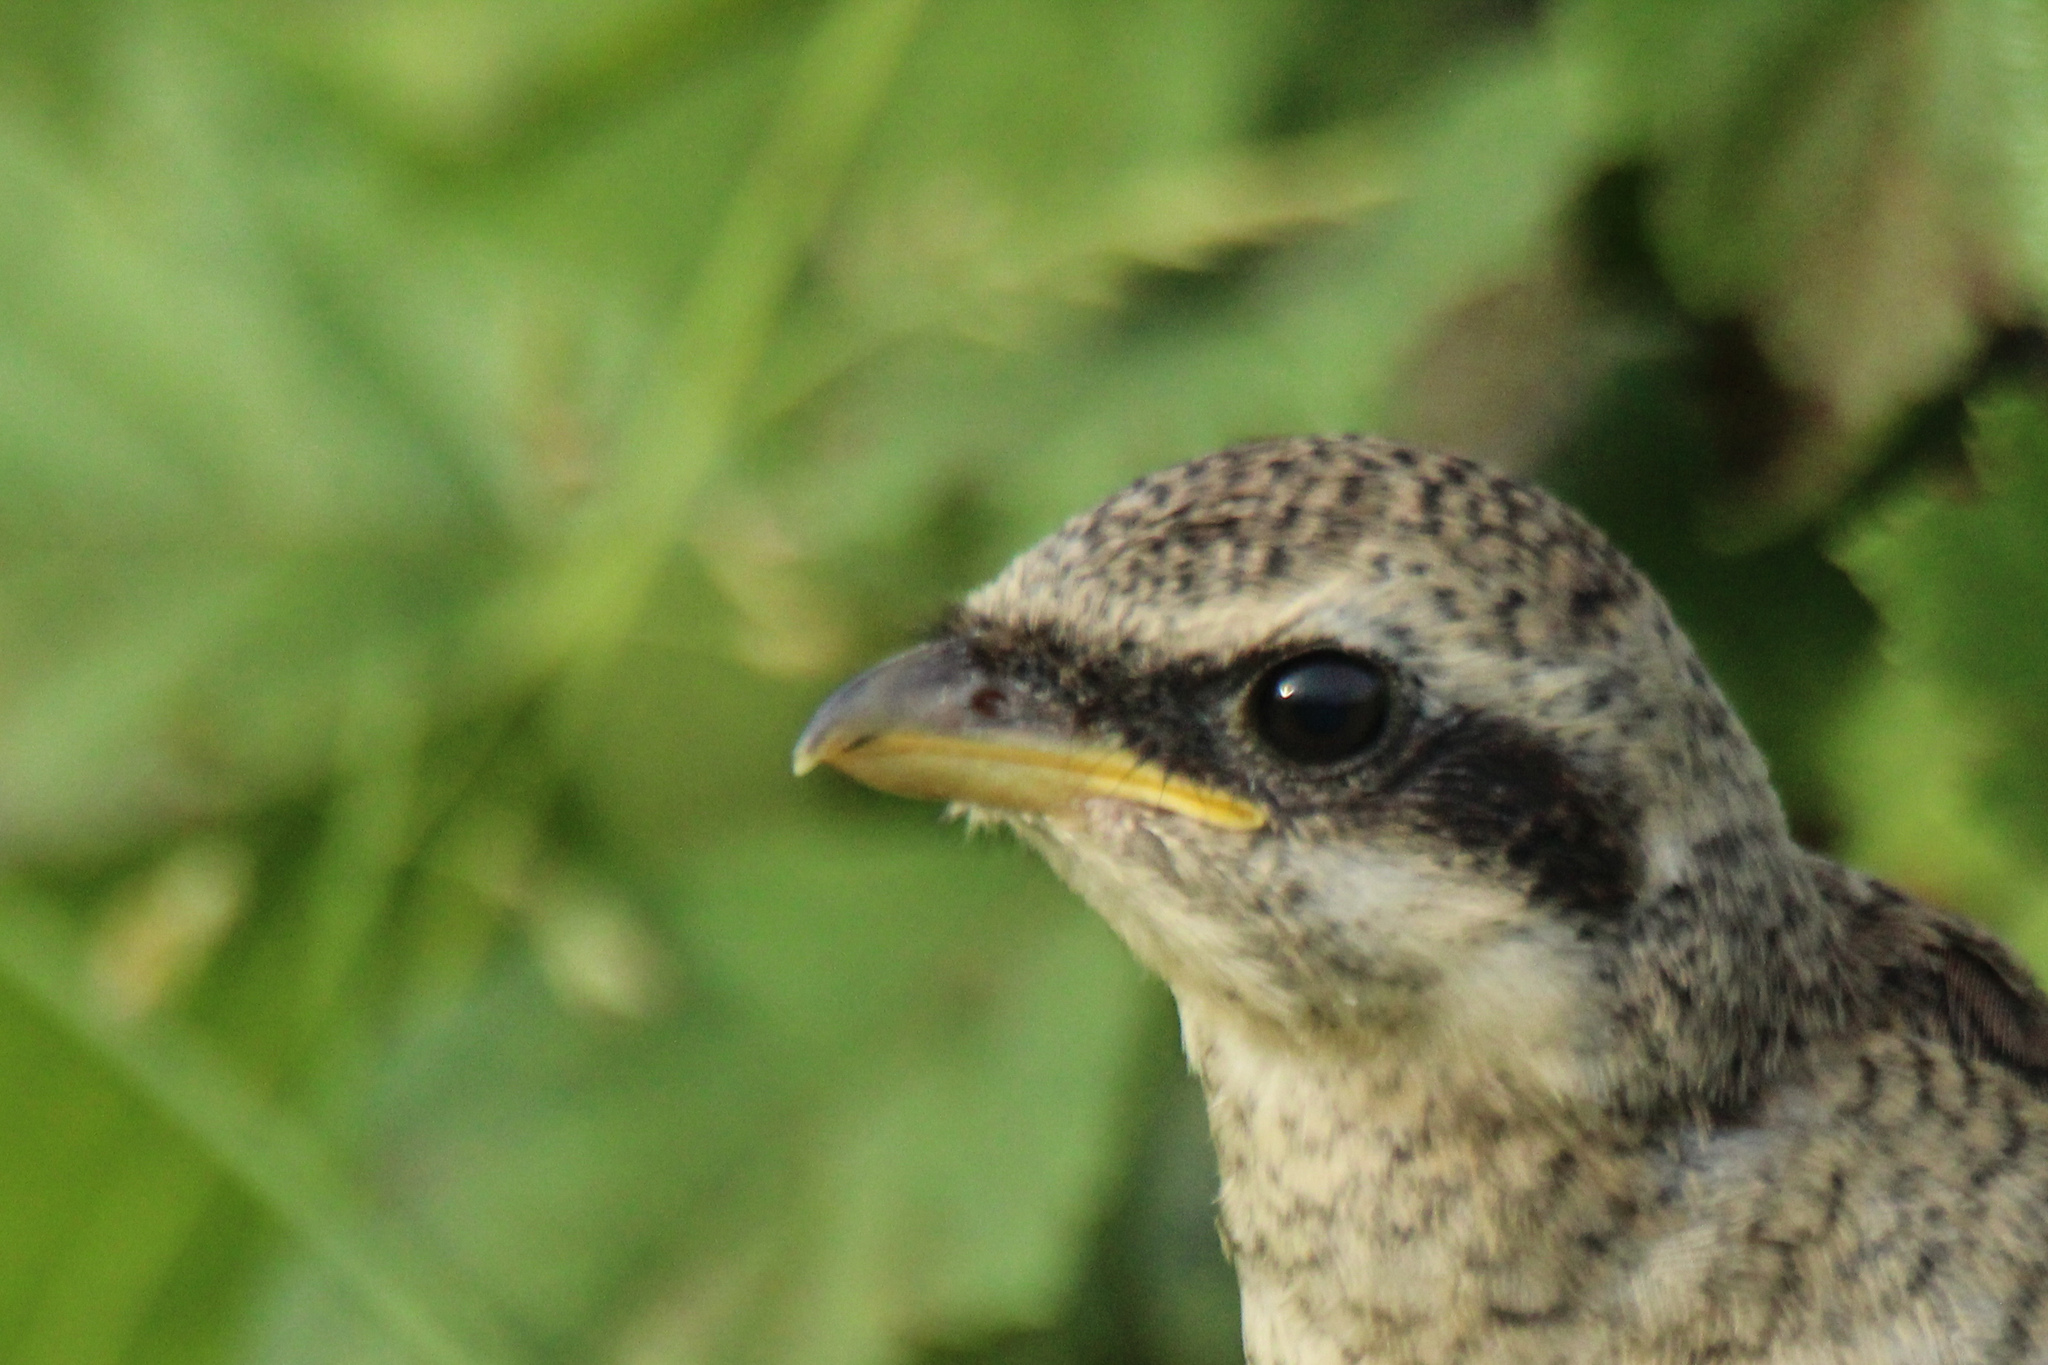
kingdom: Animalia
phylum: Chordata
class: Aves
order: Passeriformes
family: Laniidae
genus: Lanius
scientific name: Lanius cristatus
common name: Brown shrike
